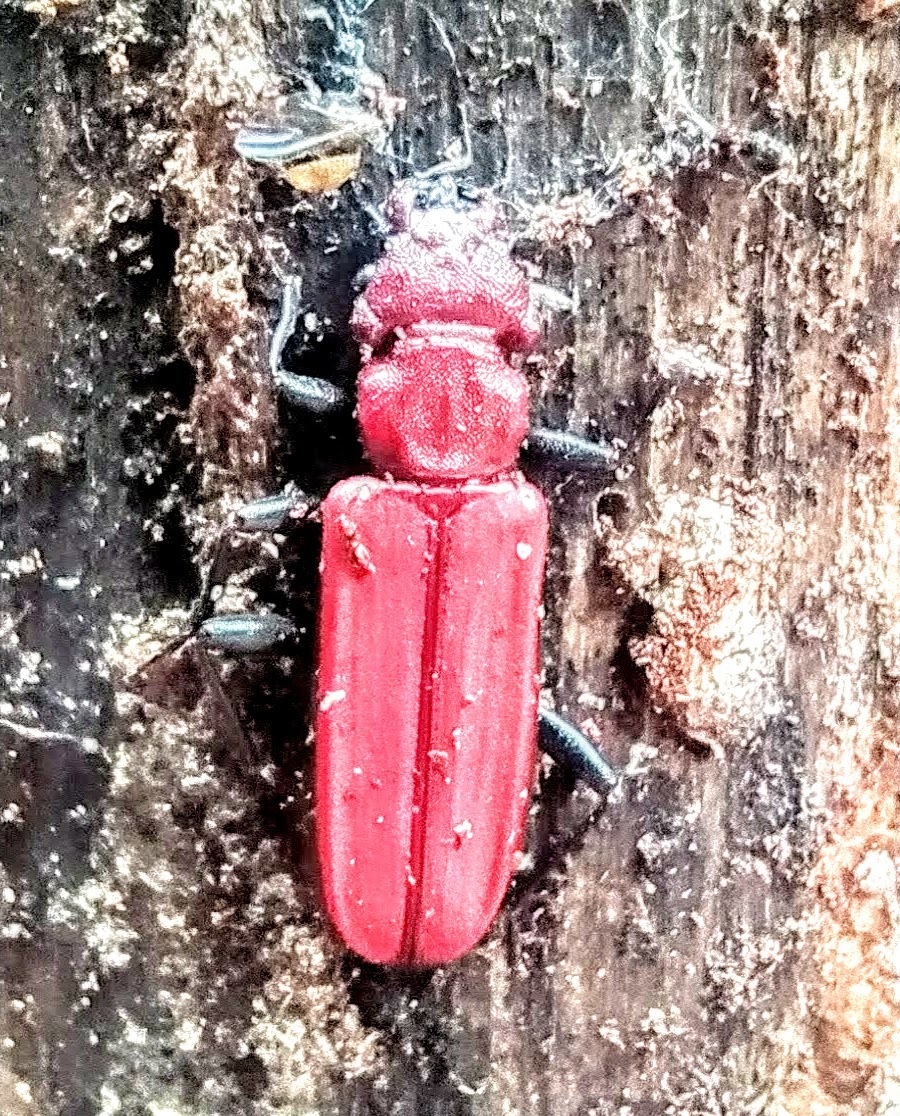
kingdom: Animalia
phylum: Arthropoda
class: Insecta
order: Coleoptera
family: Cucujidae
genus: Cucujus
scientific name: Cucujus haematodes
